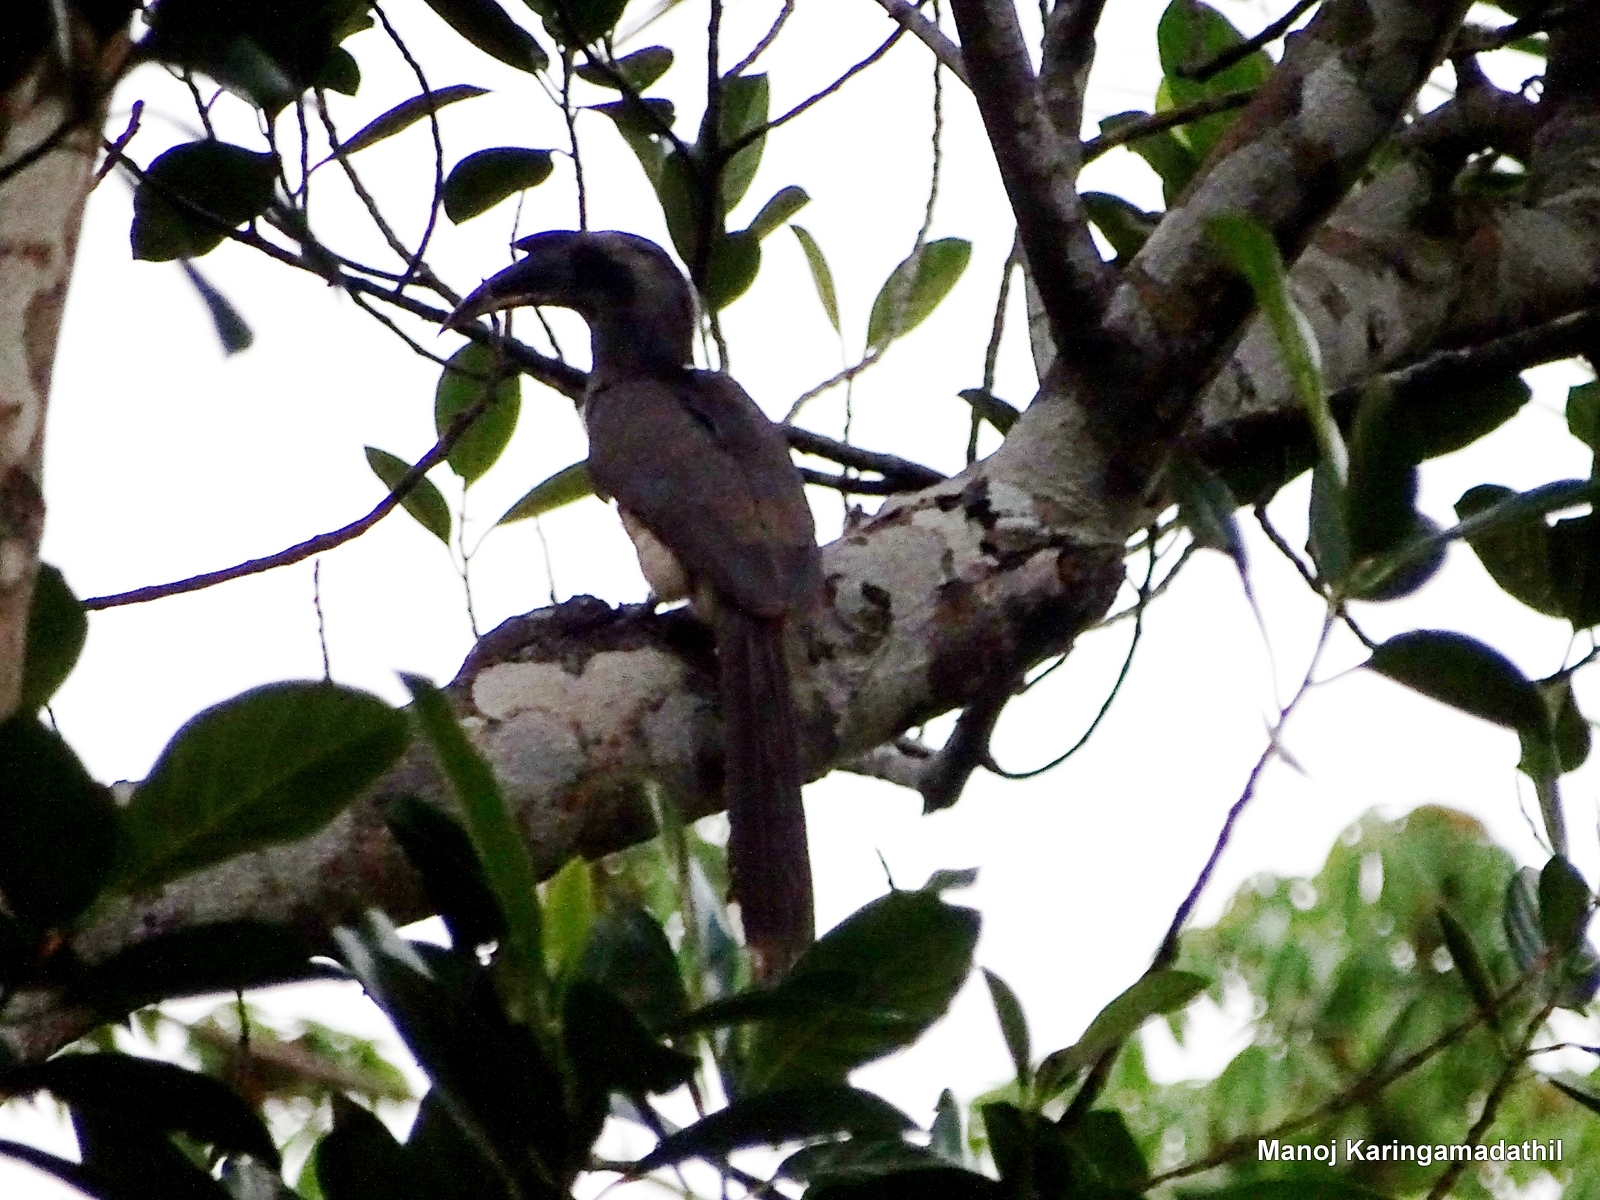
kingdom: Animalia
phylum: Chordata
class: Aves
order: Bucerotiformes
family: Bucerotidae
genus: Ocyceros
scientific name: Ocyceros birostris
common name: Indian grey hornbill
